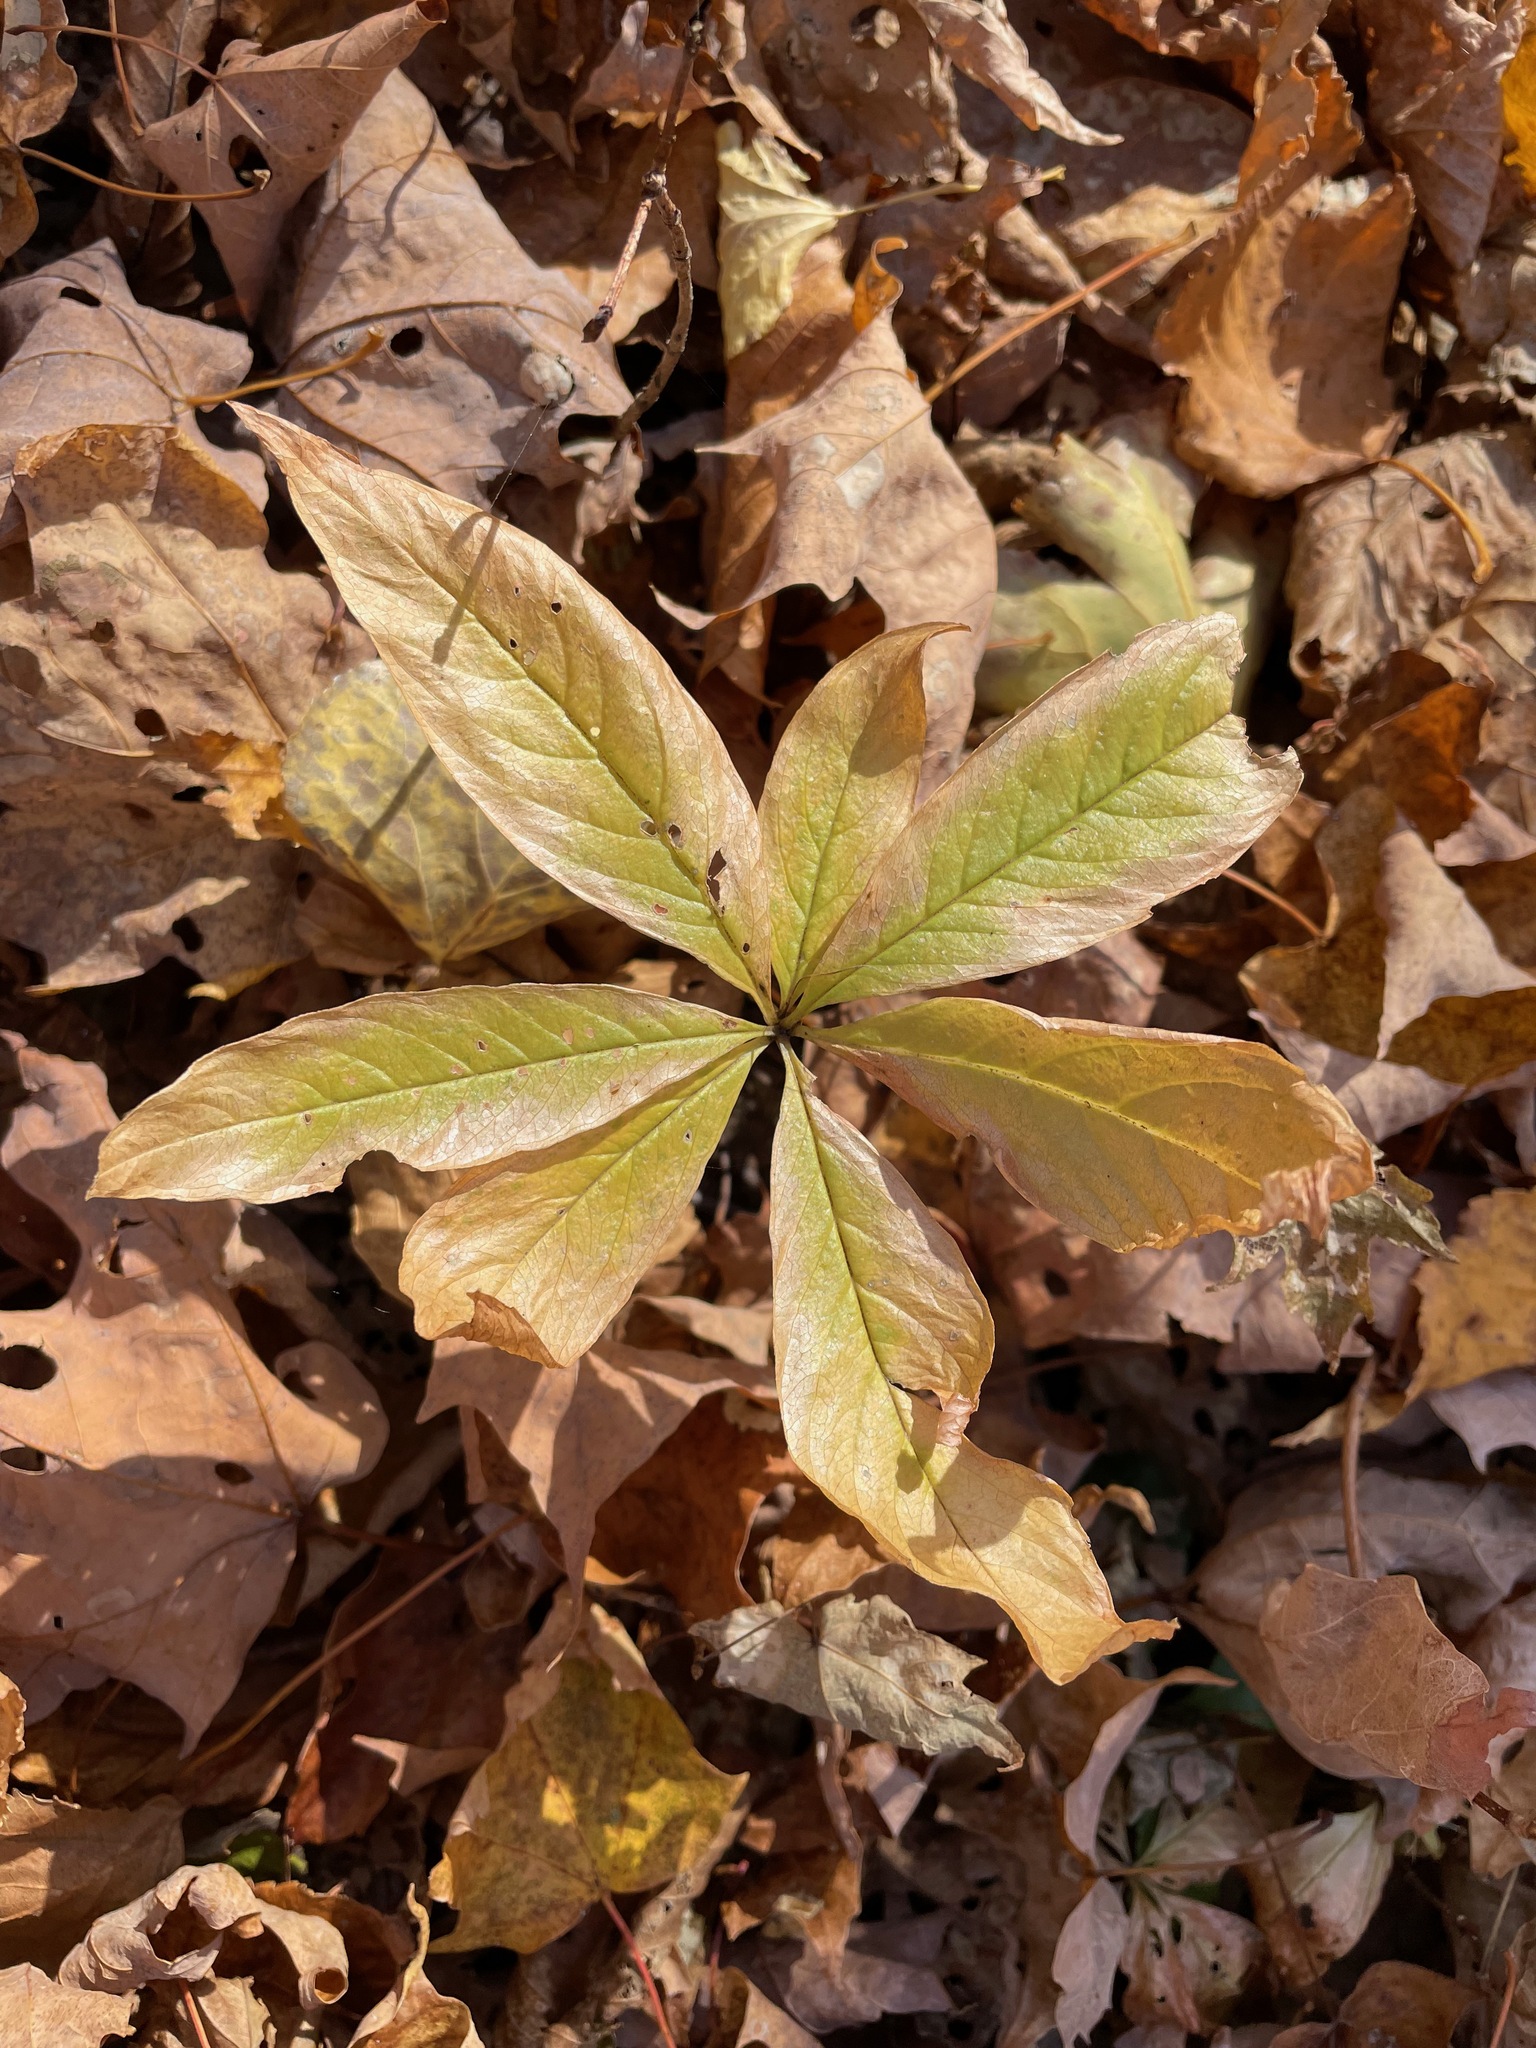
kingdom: Plantae
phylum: Tracheophyta
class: Magnoliopsida
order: Ericales
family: Primulaceae
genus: Lysimachia
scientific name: Lysimachia borealis
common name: American starflower
